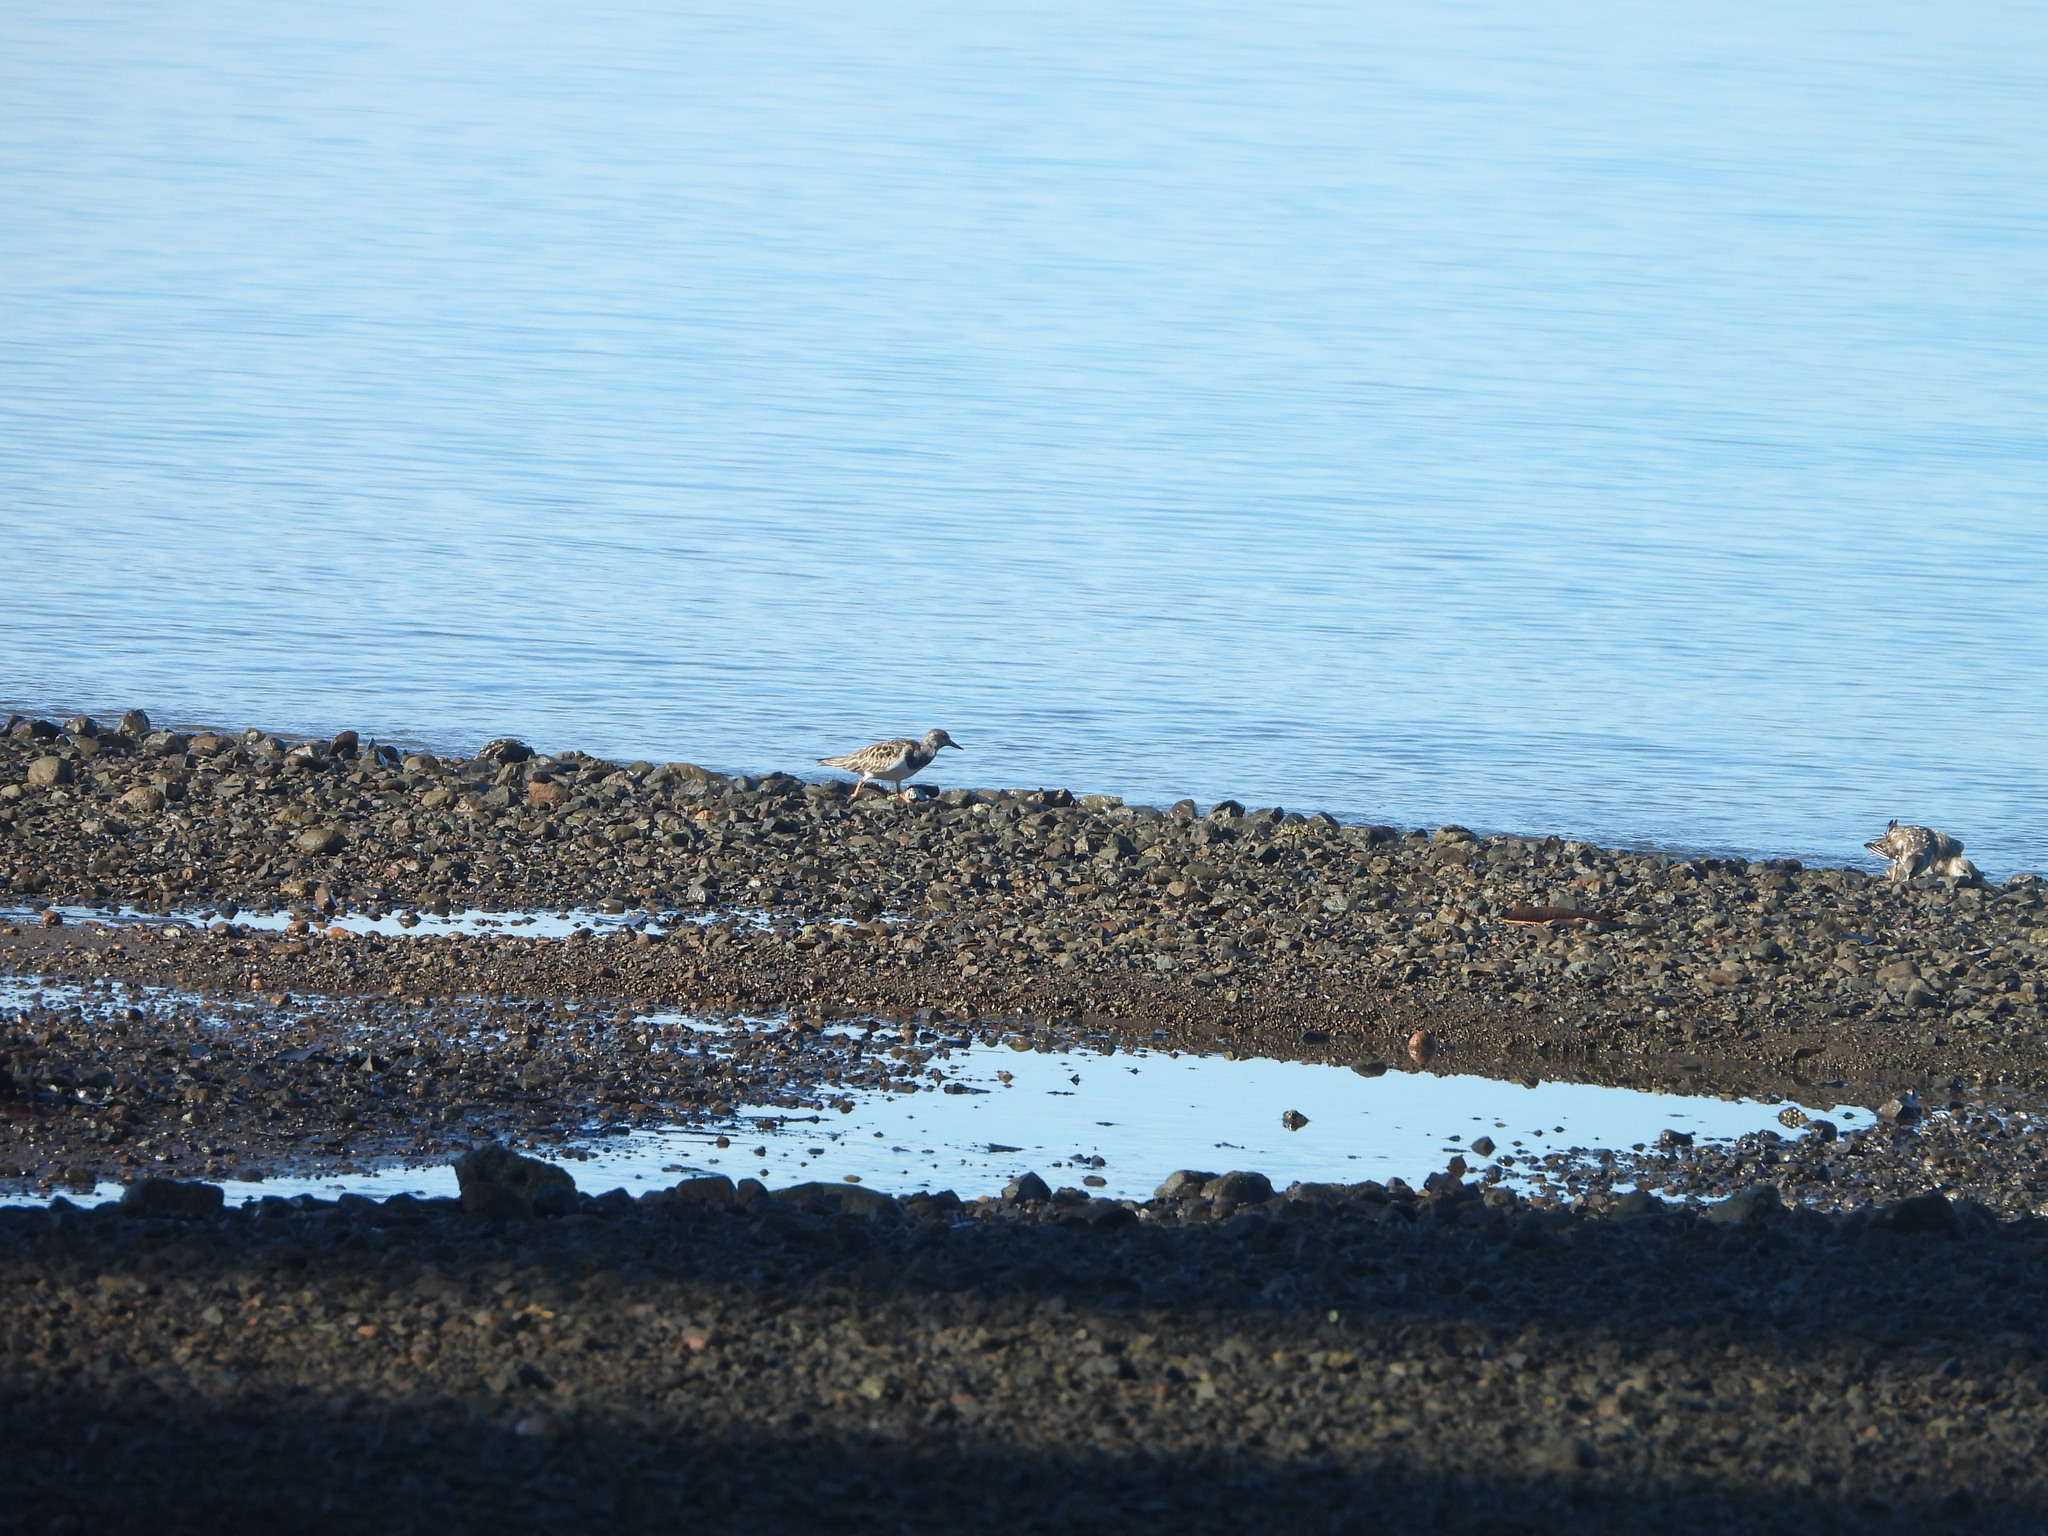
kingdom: Animalia
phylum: Chordata
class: Aves
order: Charadriiformes
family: Scolopacidae
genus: Arenaria
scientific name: Arenaria interpres
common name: Ruddy turnstone
